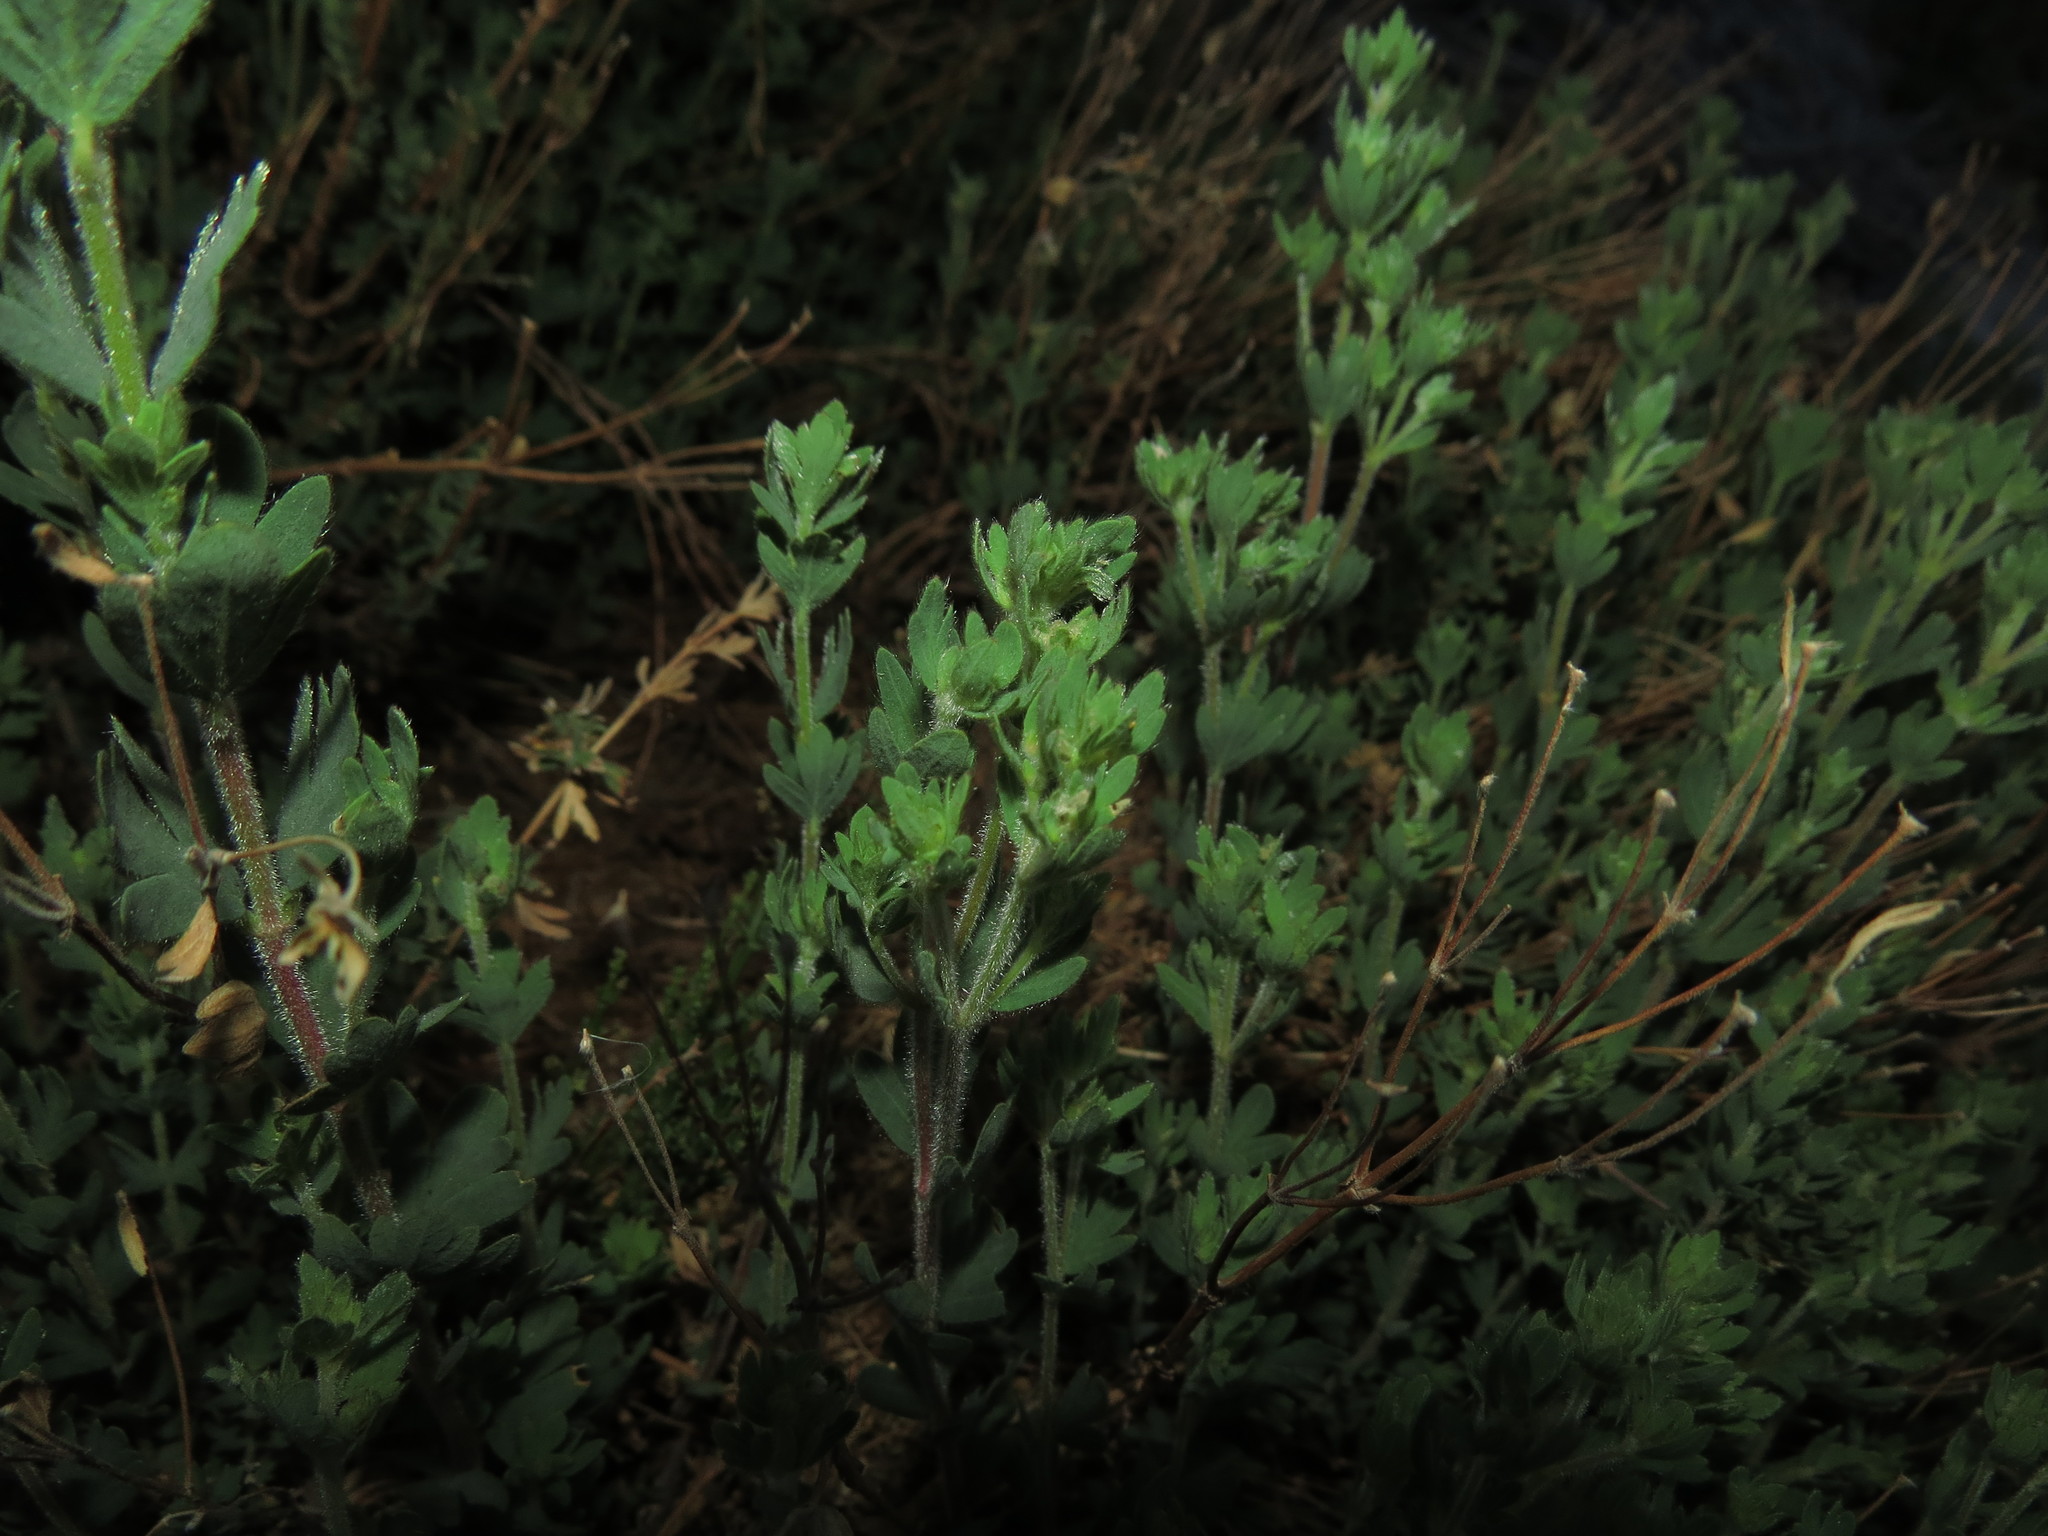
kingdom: Plantae
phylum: Tracheophyta
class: Magnoliopsida
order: Geraniales
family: Vivianiaceae
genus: Wendtia
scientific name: Wendtia gracilis
